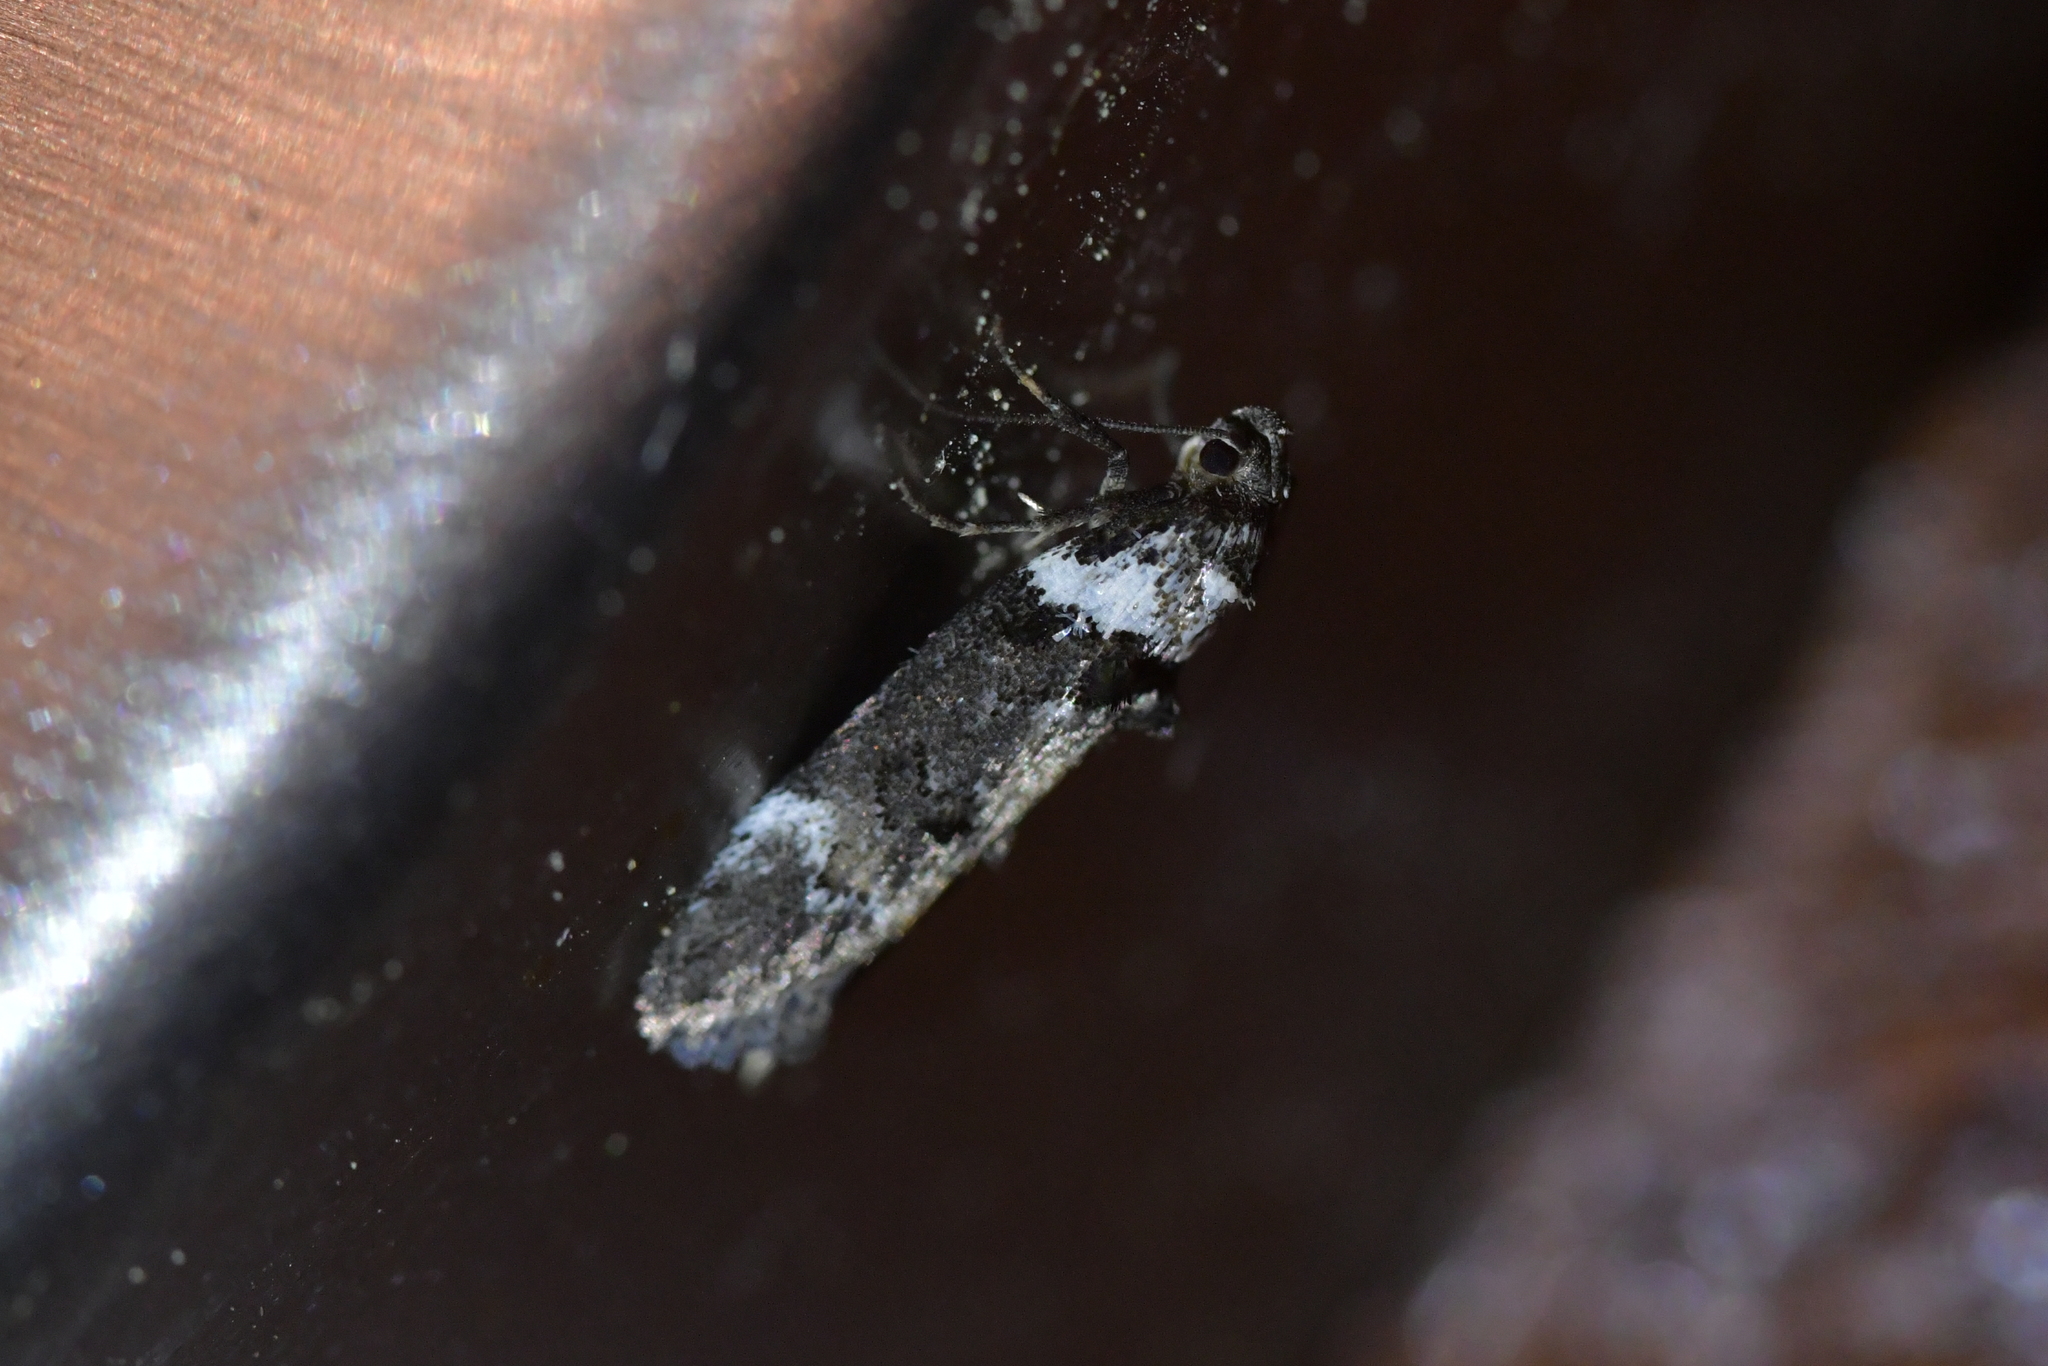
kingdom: Animalia
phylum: Arthropoda
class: Insecta
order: Lepidoptera
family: Oecophoridae
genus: Trachypepla
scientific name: Trachypepla conspicuella
